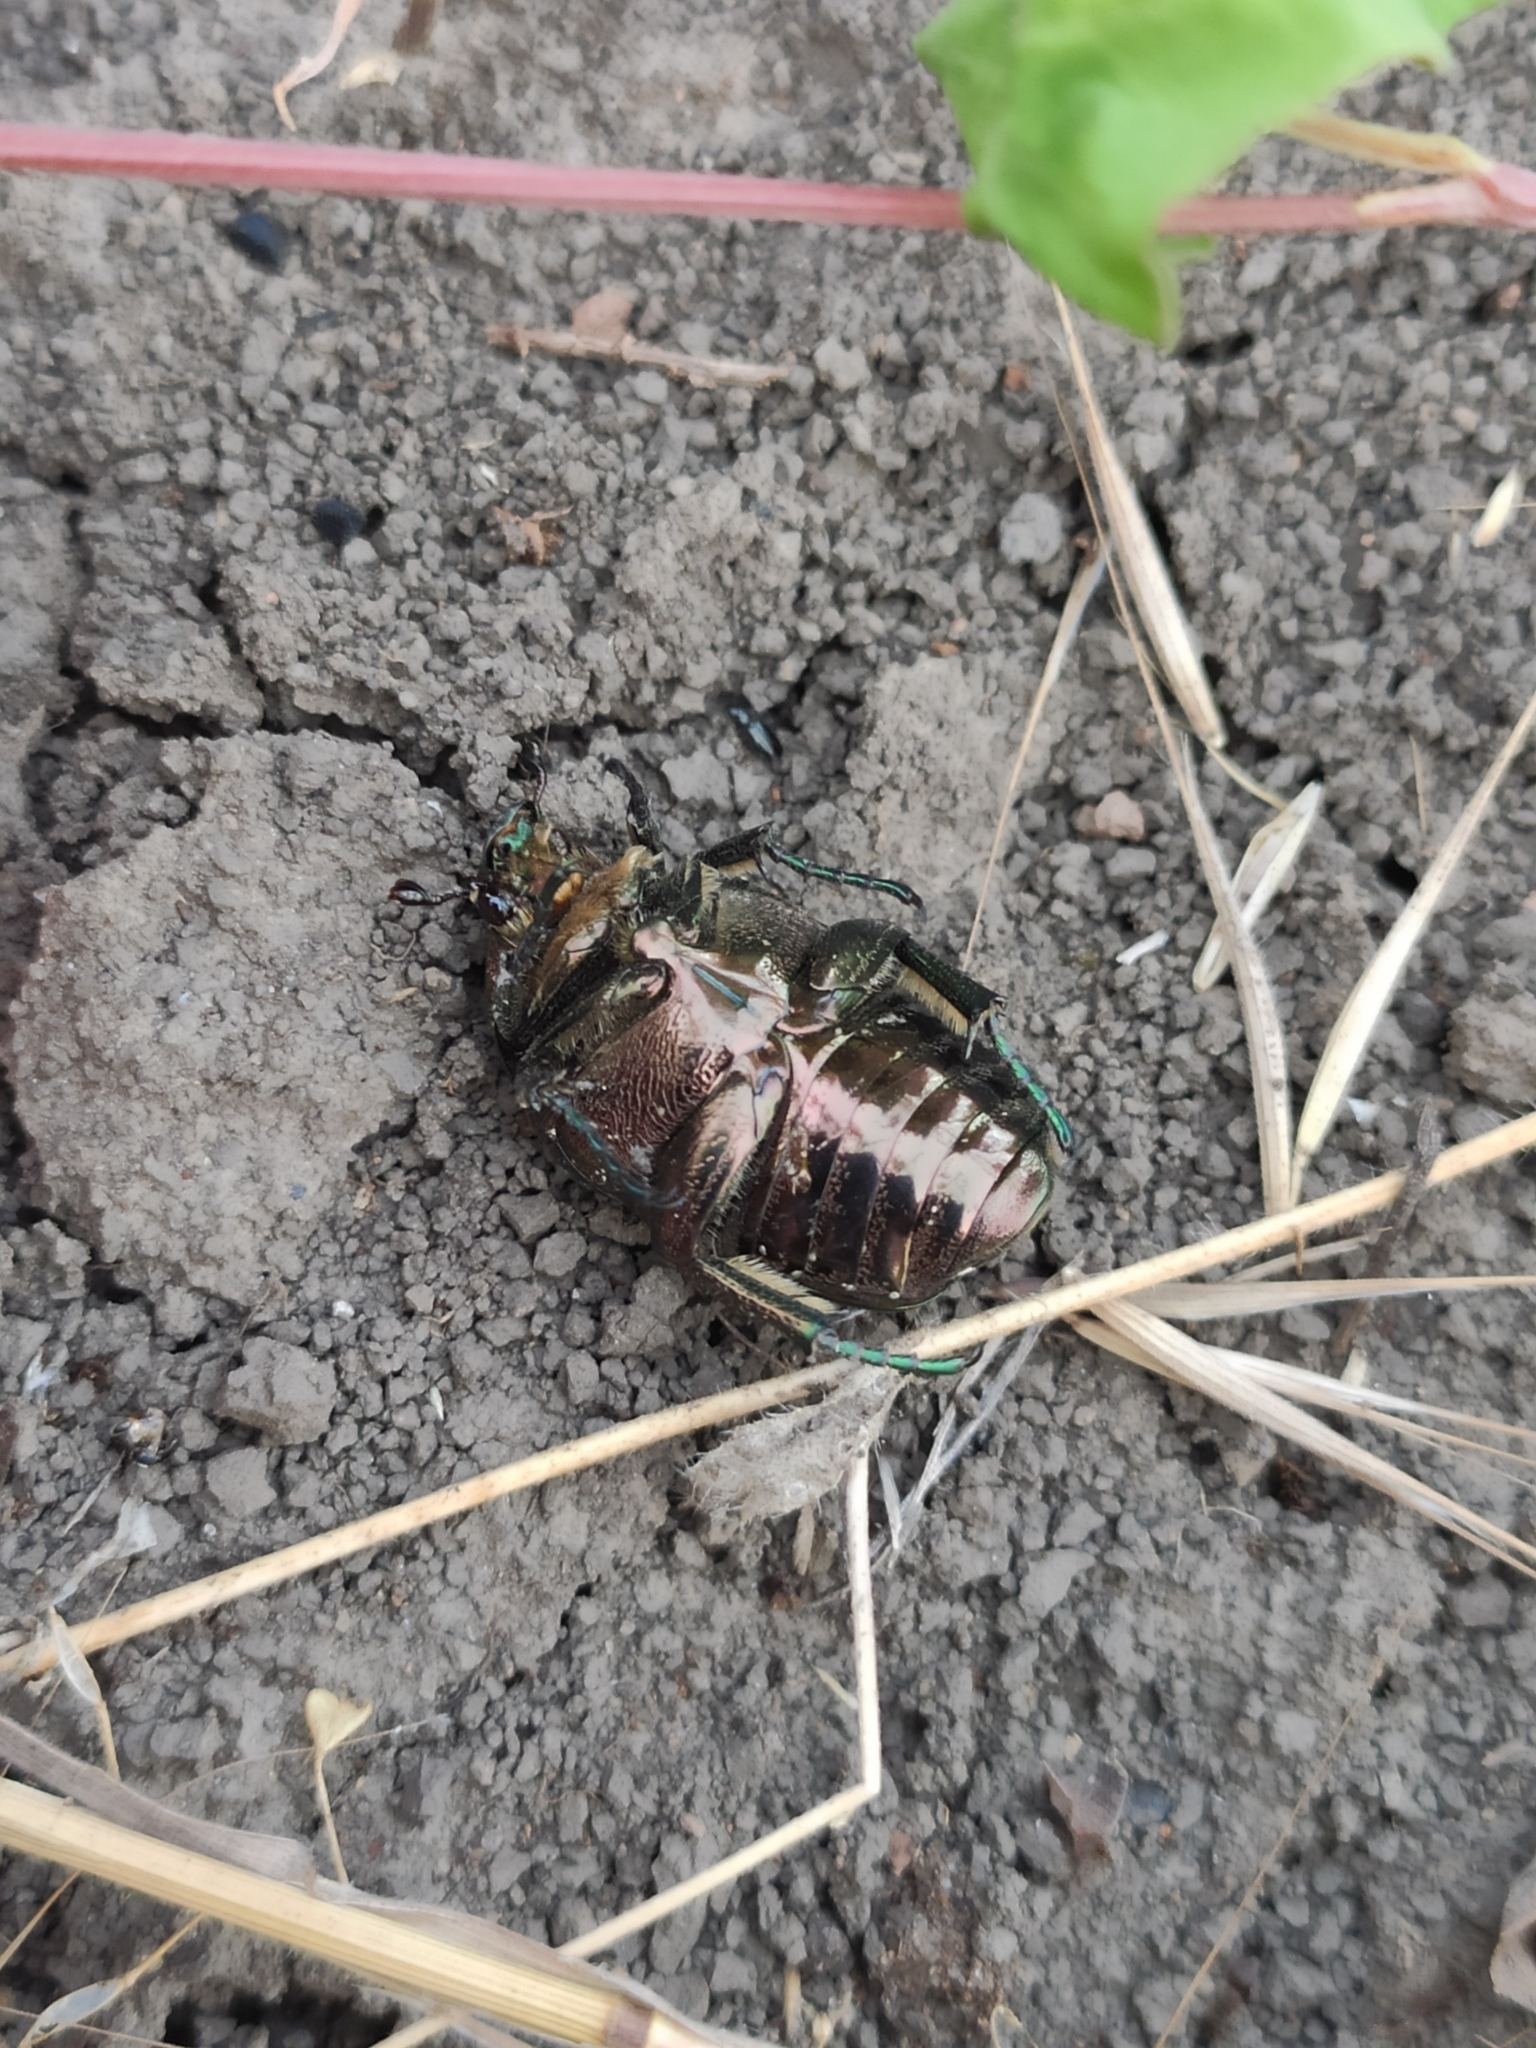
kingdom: Animalia
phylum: Arthropoda
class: Insecta
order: Coleoptera
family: Scarabaeidae
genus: Protaetia
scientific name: Protaetia cuprea
